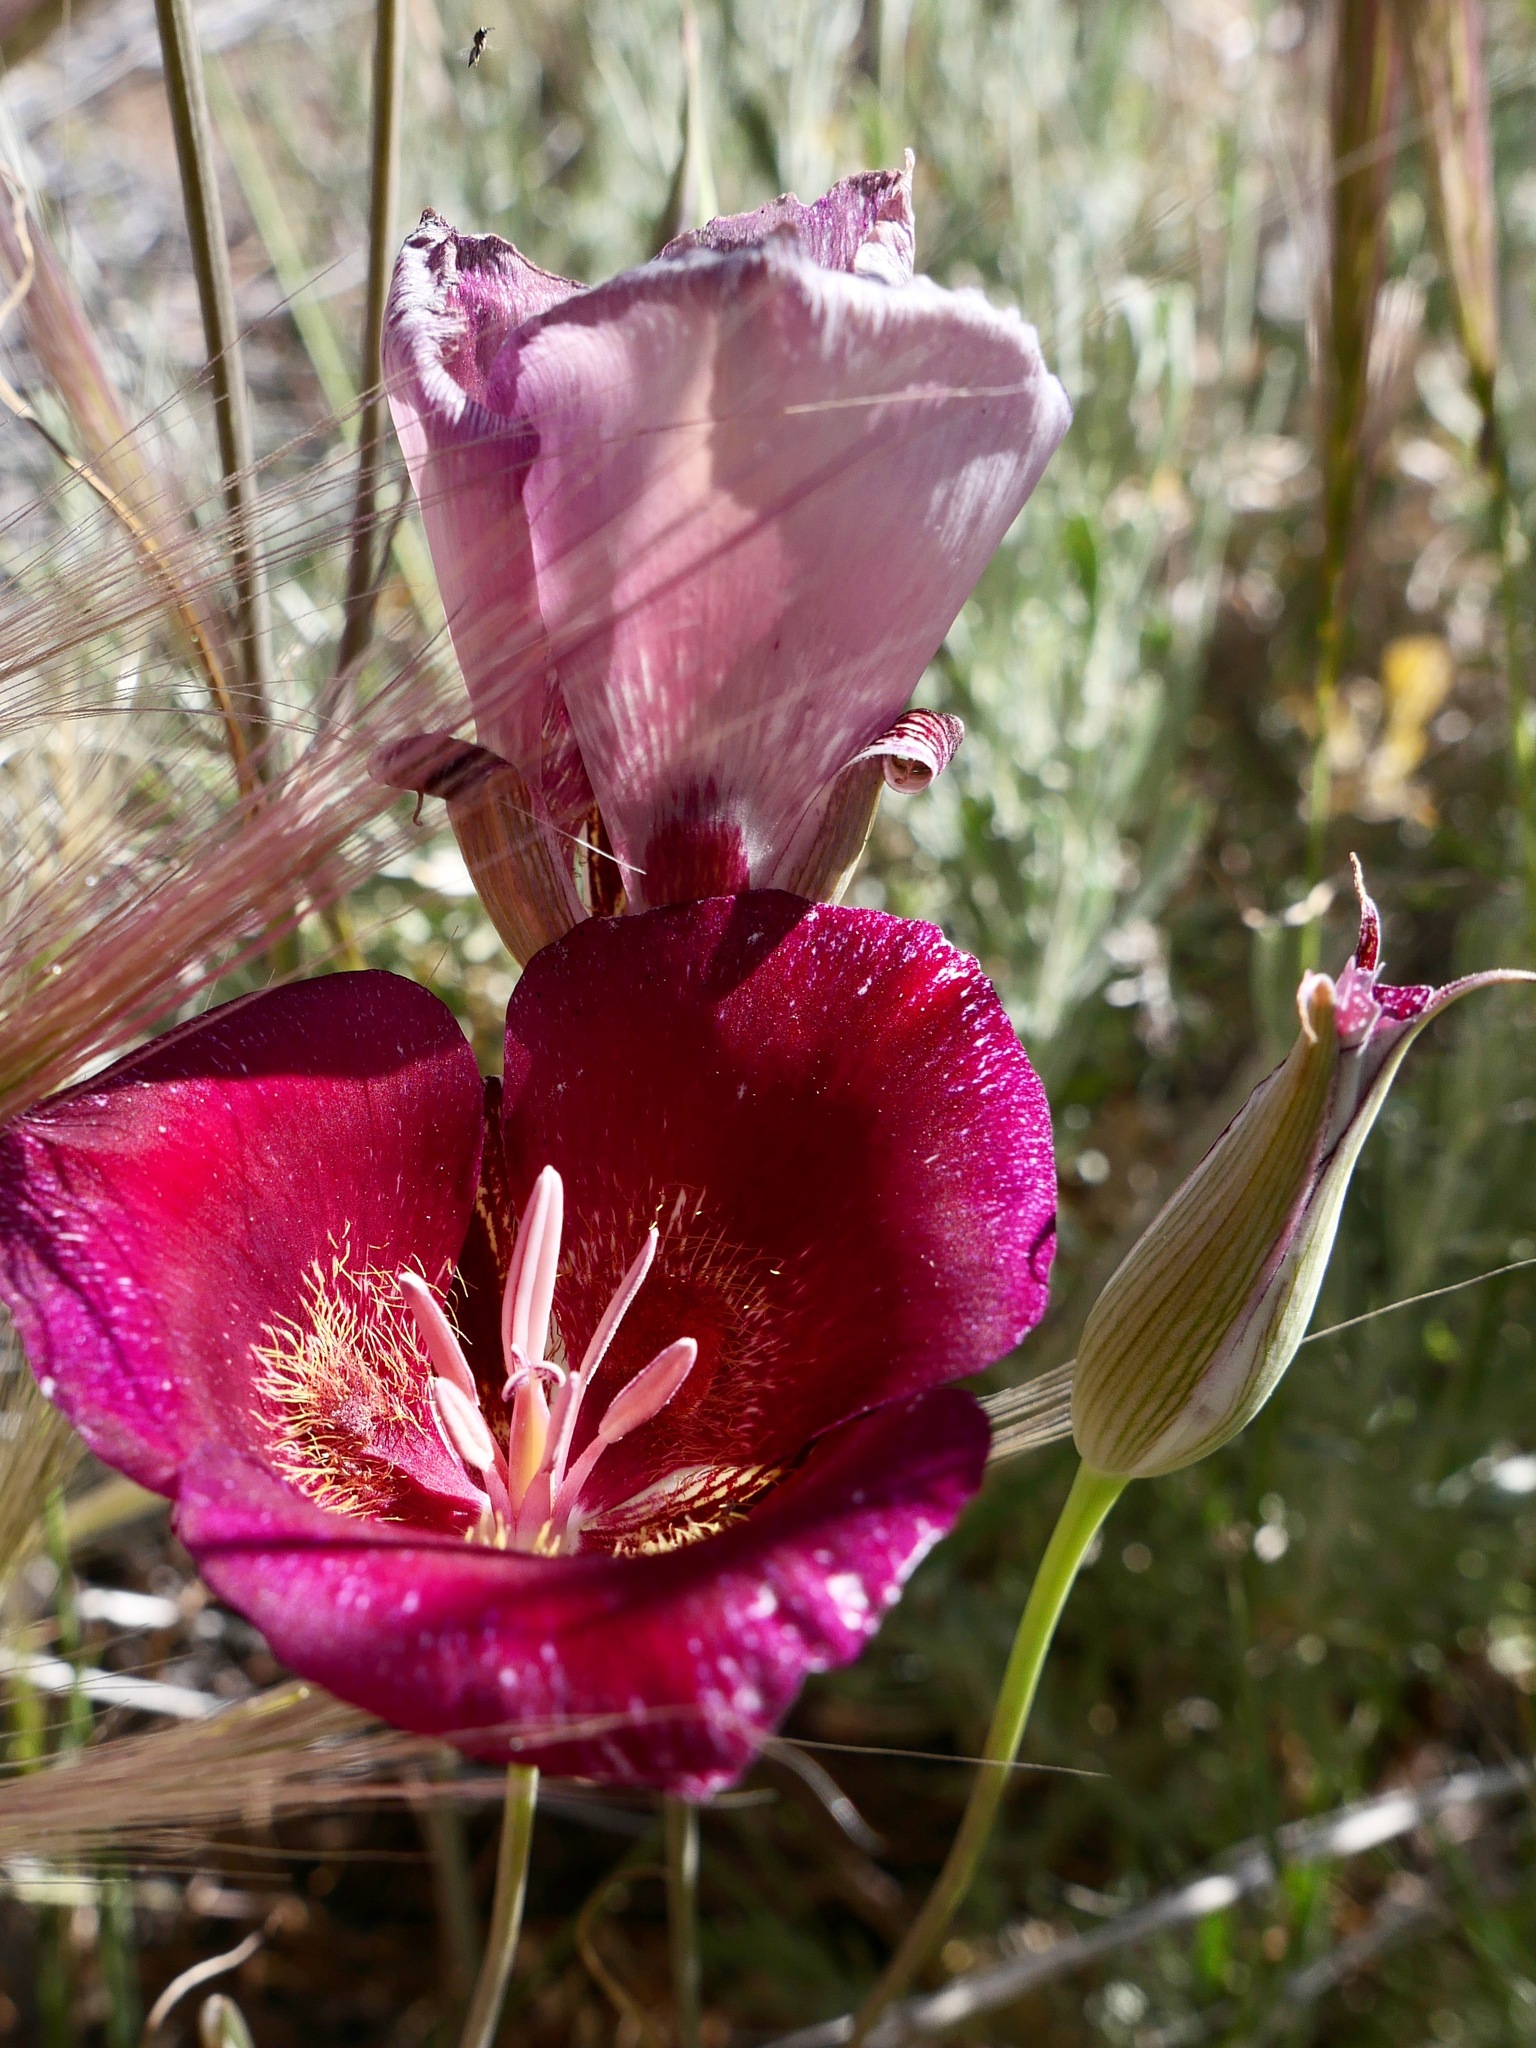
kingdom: Plantae
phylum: Tracheophyta
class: Liliopsida
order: Liliales
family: Liliaceae
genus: Calochortus
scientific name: Calochortus venustus
